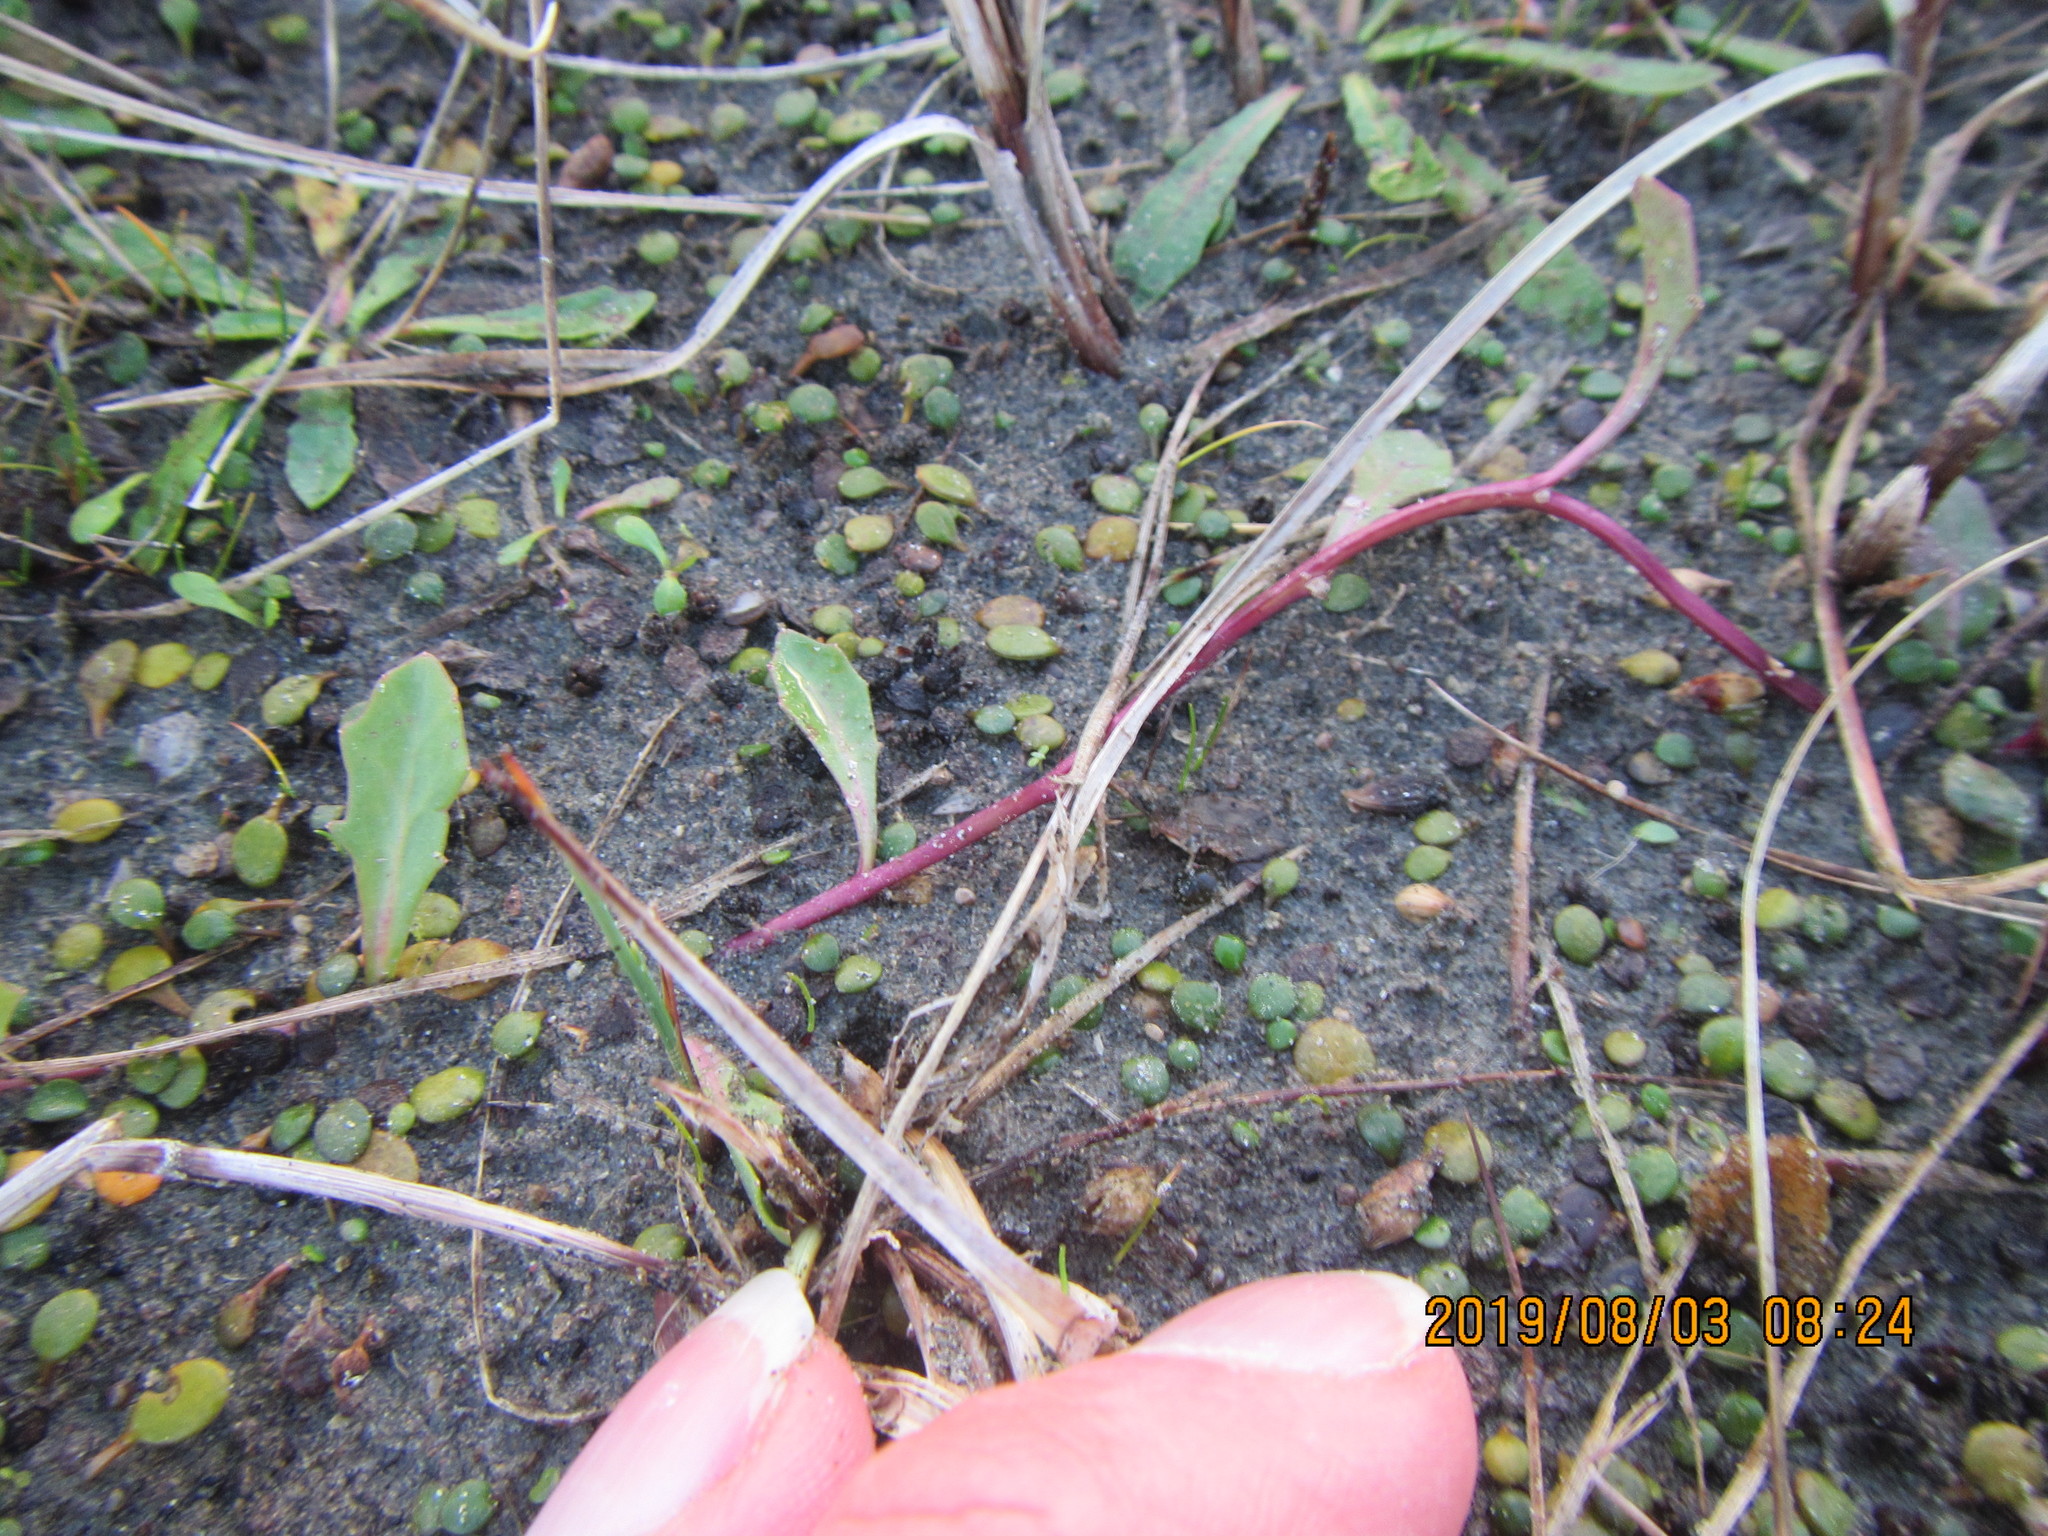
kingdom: Plantae
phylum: Tracheophyta
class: Magnoliopsida
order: Asterales
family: Campanulaceae
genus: Lobelia
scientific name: Lobelia anceps
